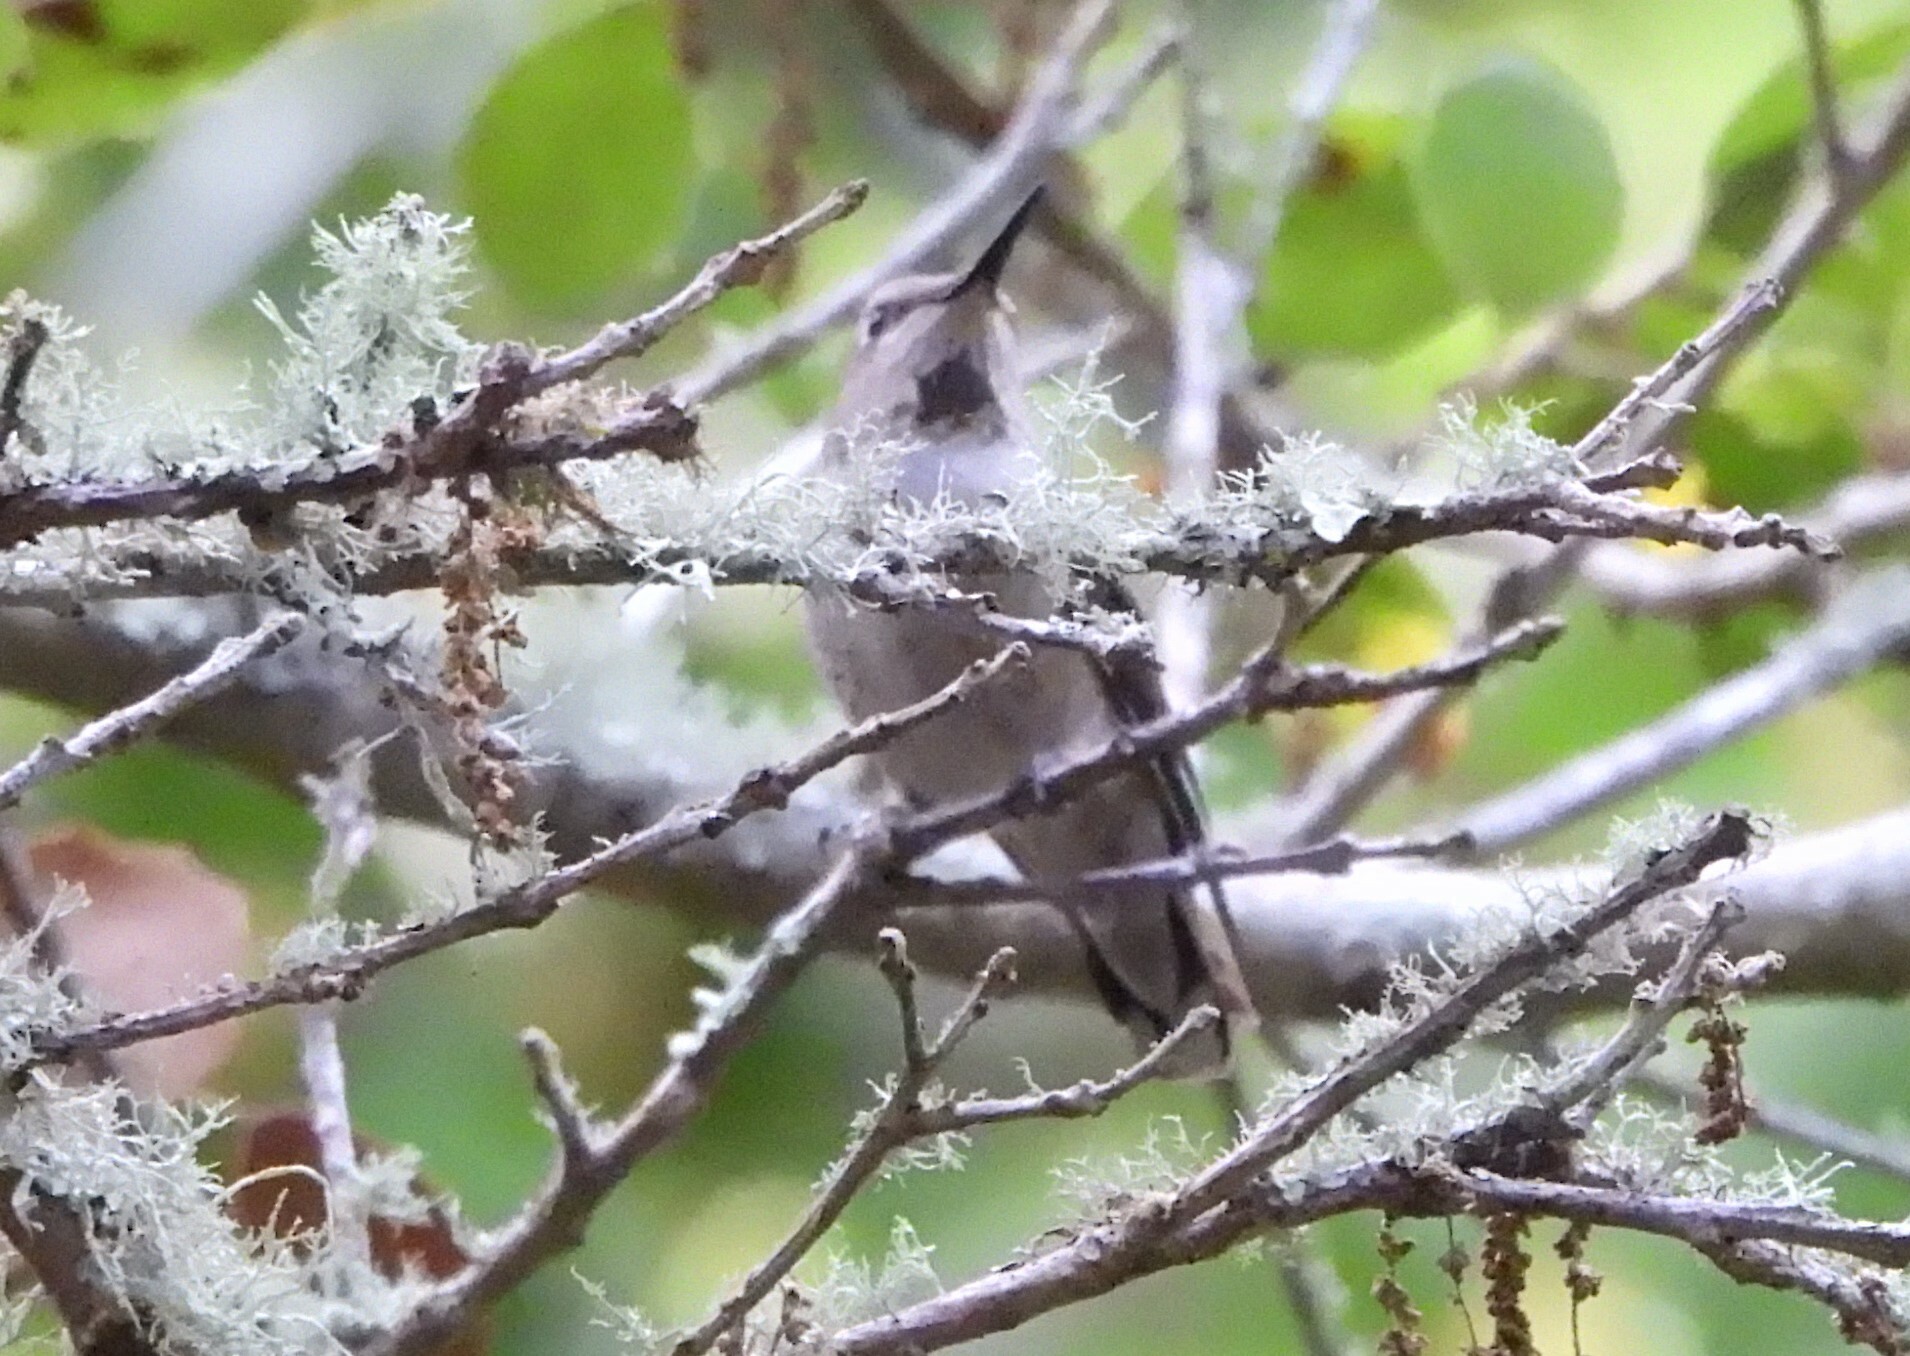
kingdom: Animalia
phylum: Chordata
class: Aves
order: Apodiformes
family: Trochilidae
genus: Calypte
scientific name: Calypte anna
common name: Anna's hummingbird
